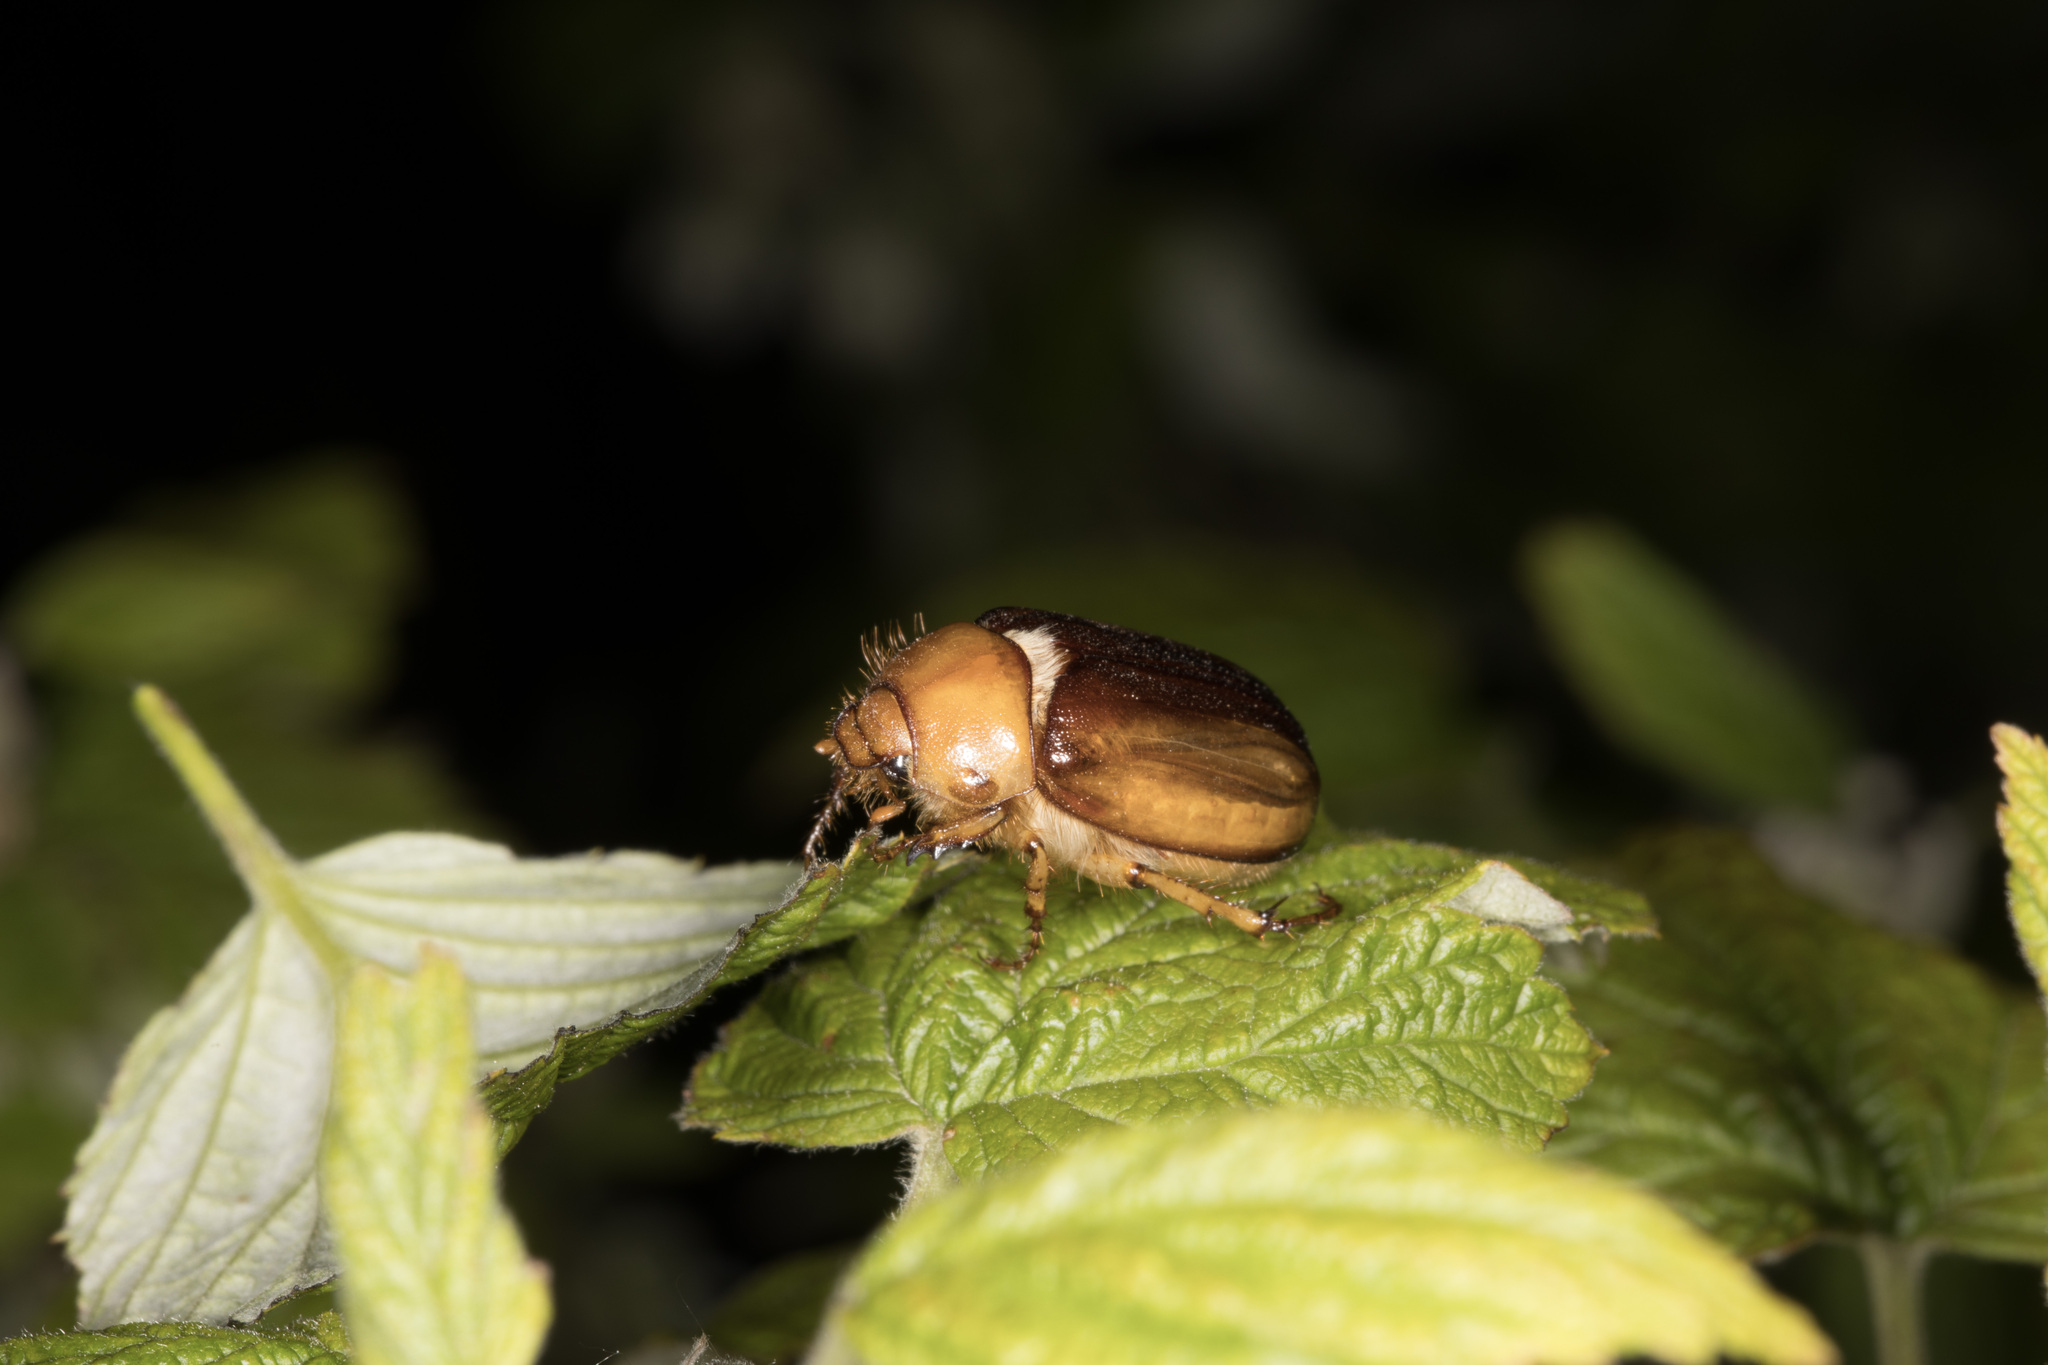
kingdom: Animalia
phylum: Arthropoda
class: Insecta
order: Coleoptera
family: Scarabaeidae
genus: Rhizotrogus
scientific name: Rhizotrogus aestivus
